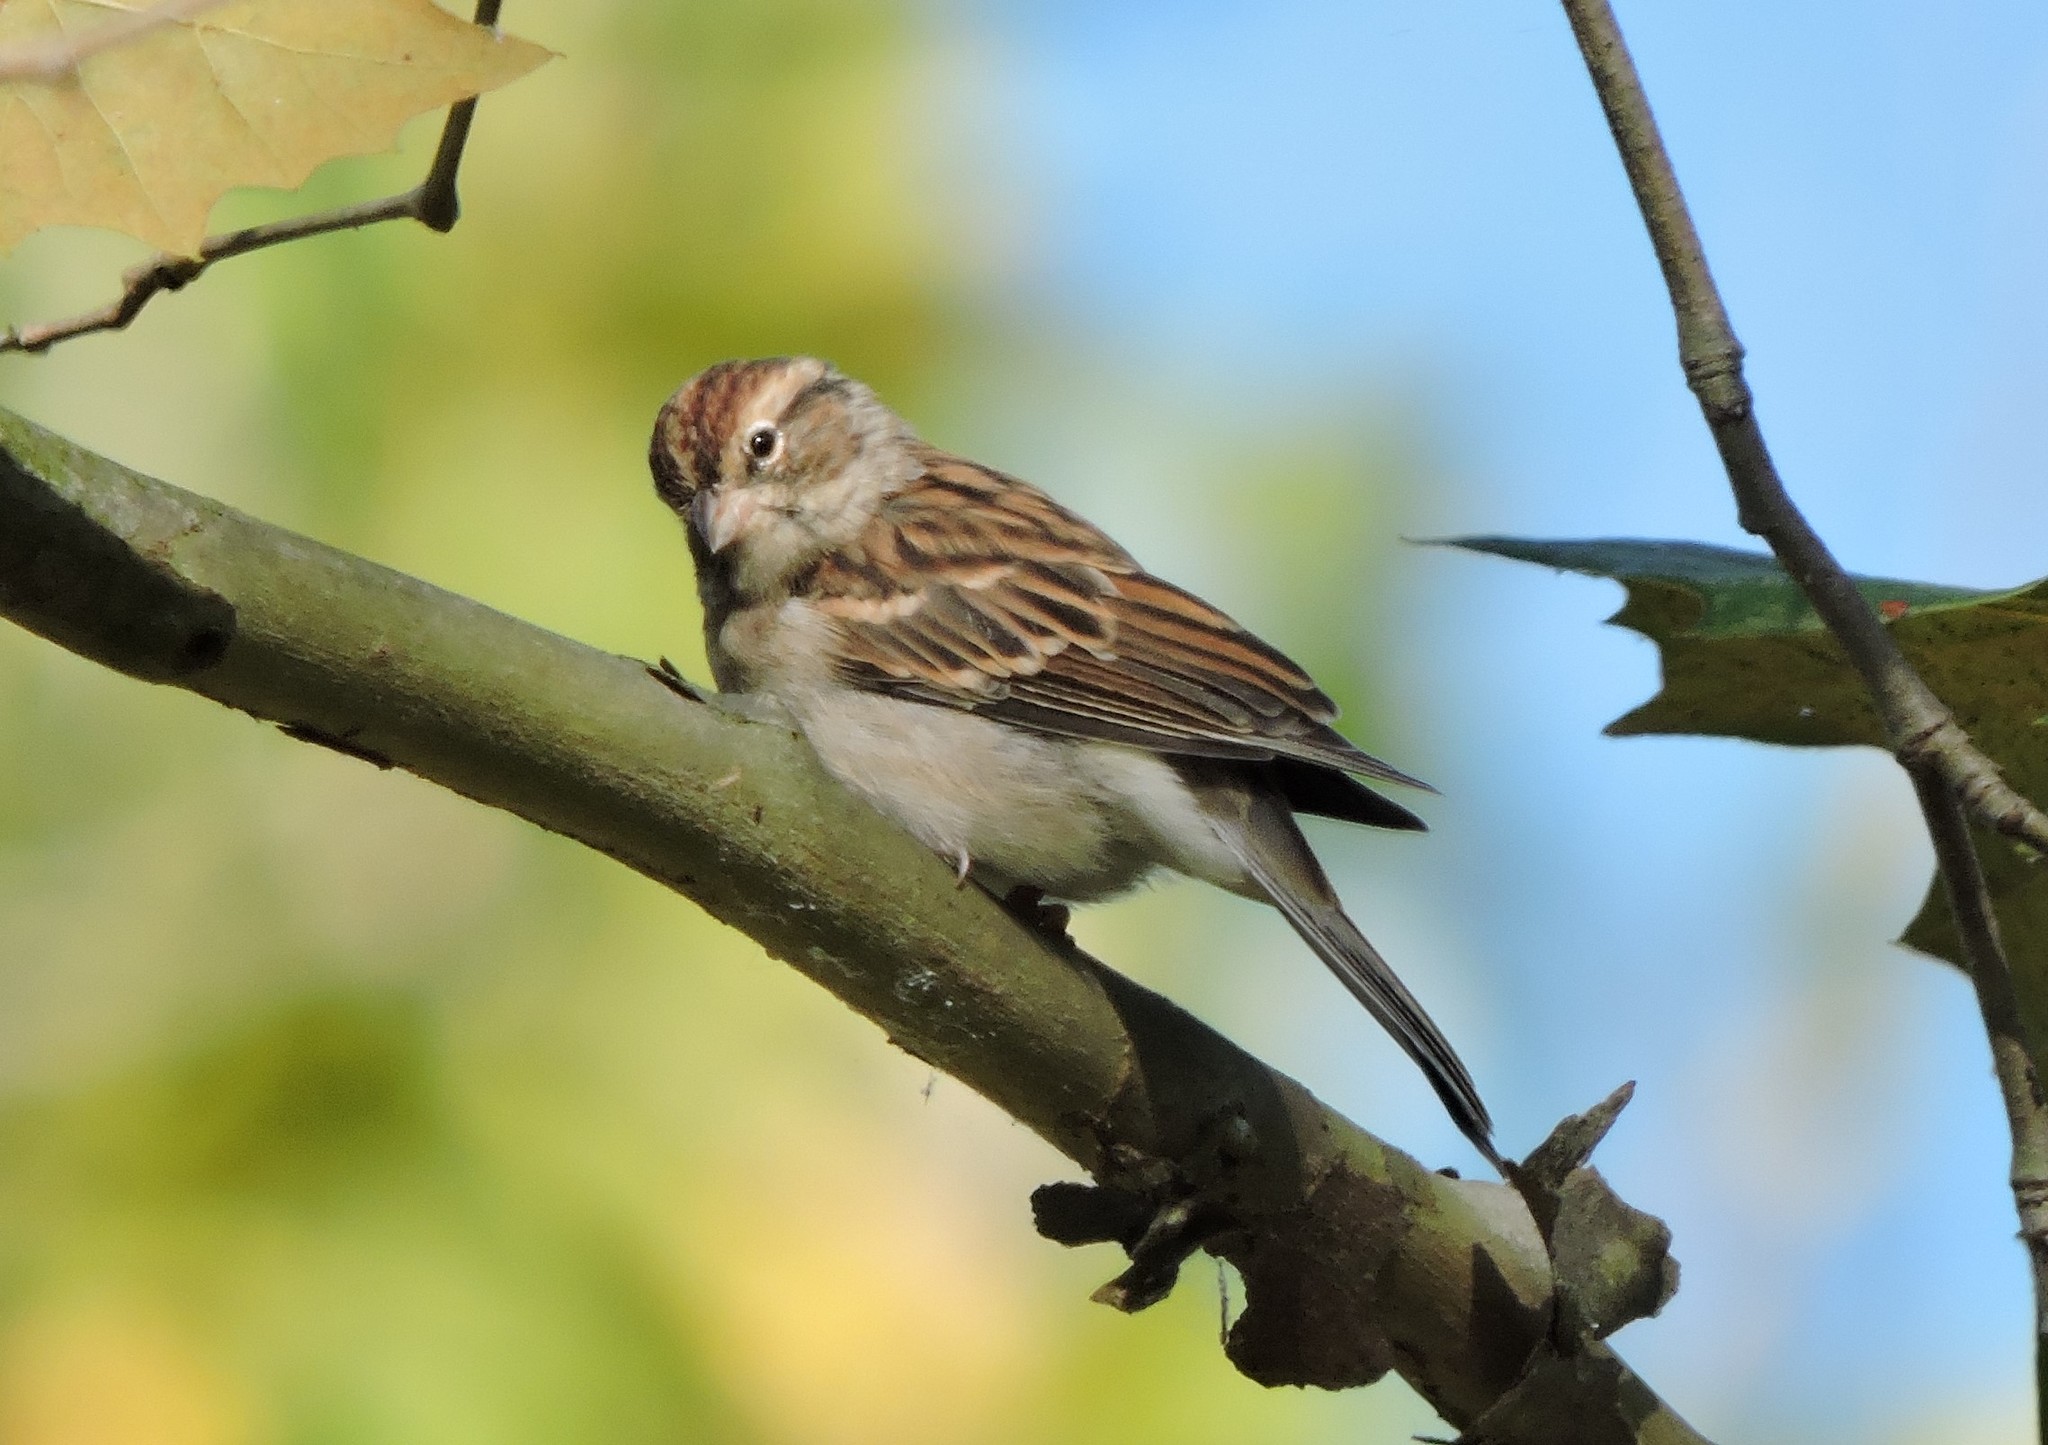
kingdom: Animalia
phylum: Chordata
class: Aves
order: Passeriformes
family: Passerellidae
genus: Spizella
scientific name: Spizella passerina
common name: Chipping sparrow
